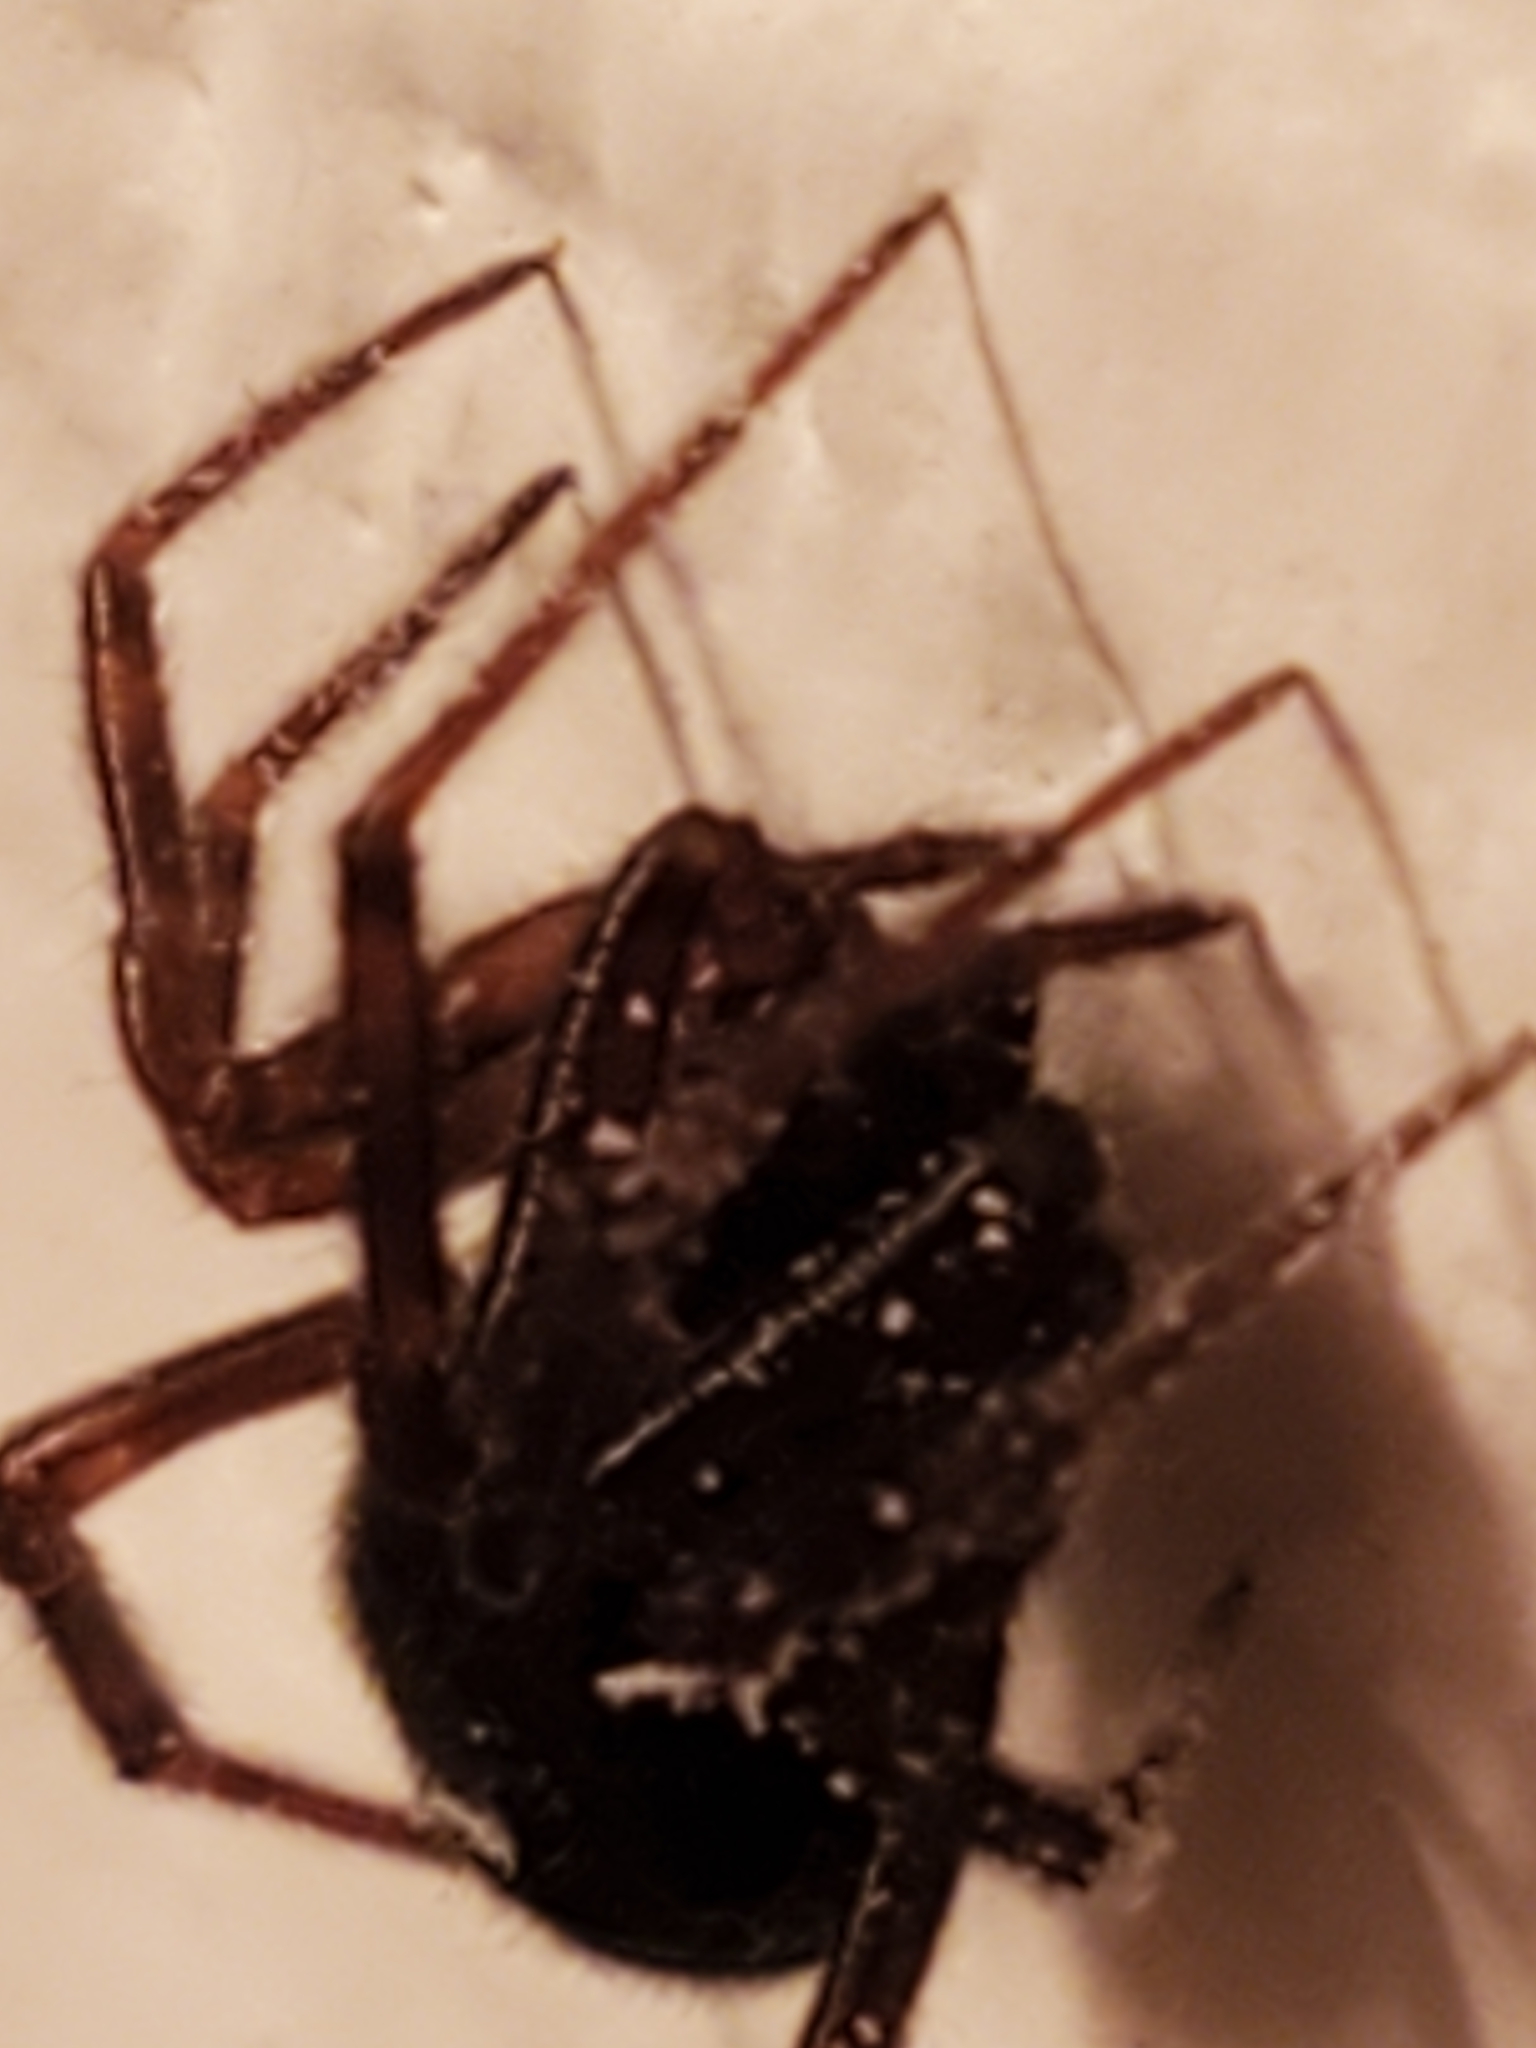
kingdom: Animalia
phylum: Arthropoda
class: Arachnida
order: Araneae
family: Theridiidae
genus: Steatoda
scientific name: Steatoda borealis
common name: Boreal combfoot
